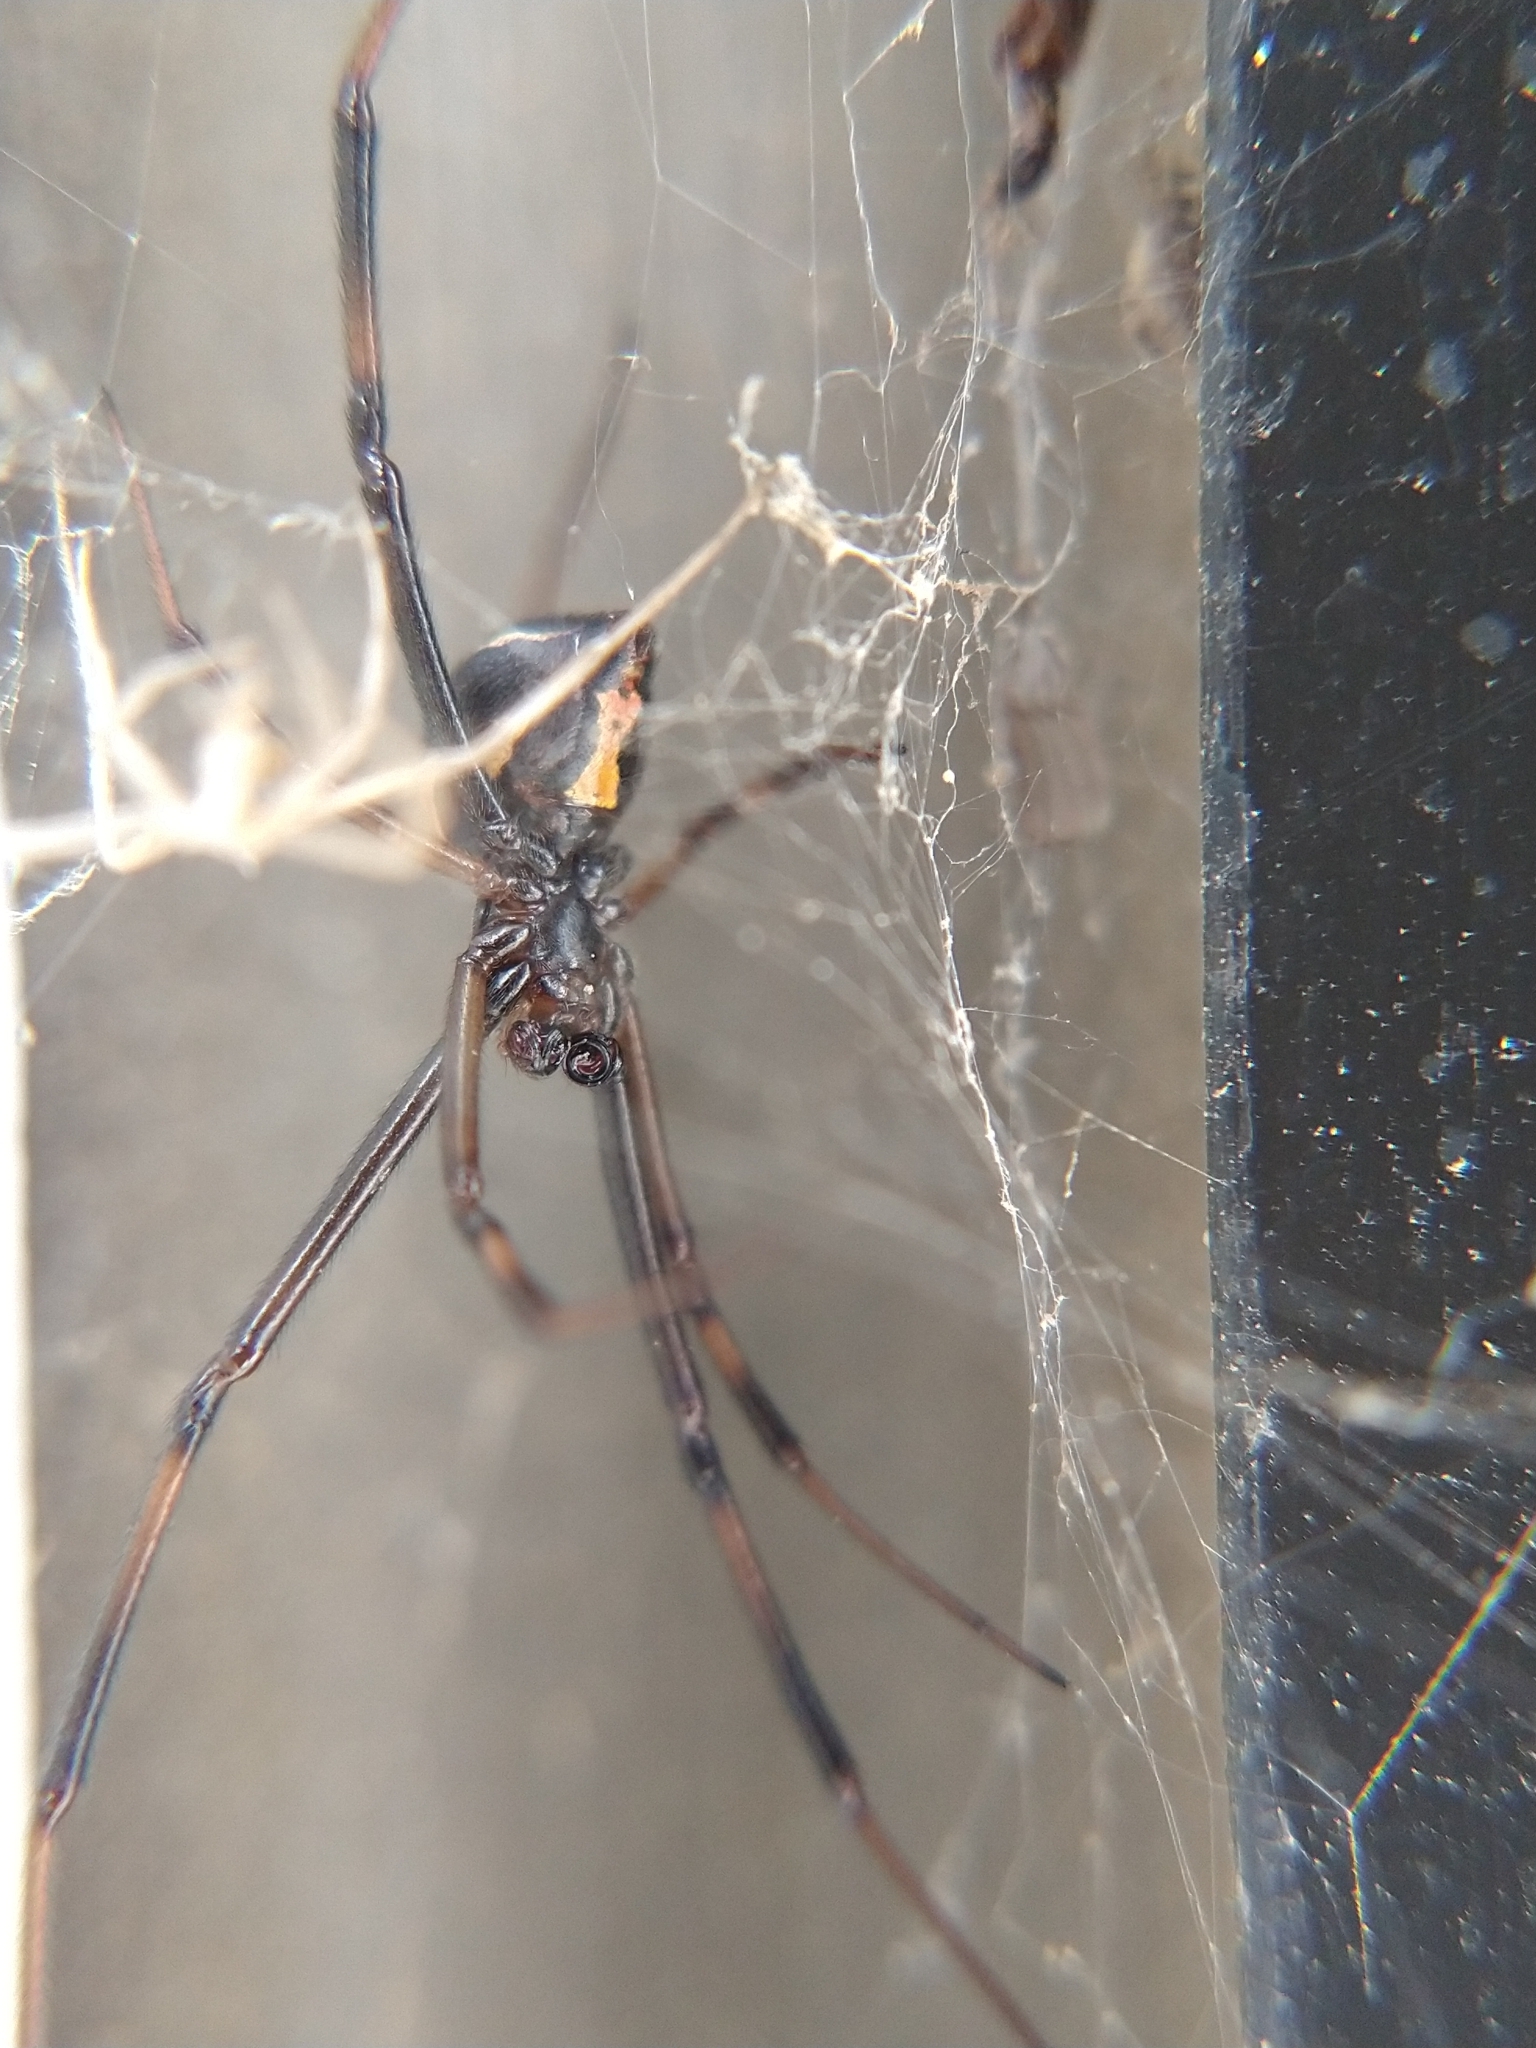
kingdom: Animalia
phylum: Arthropoda
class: Arachnida
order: Araneae
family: Theridiidae
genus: Latrodectus
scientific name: Latrodectus hesperus
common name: Western black widow
